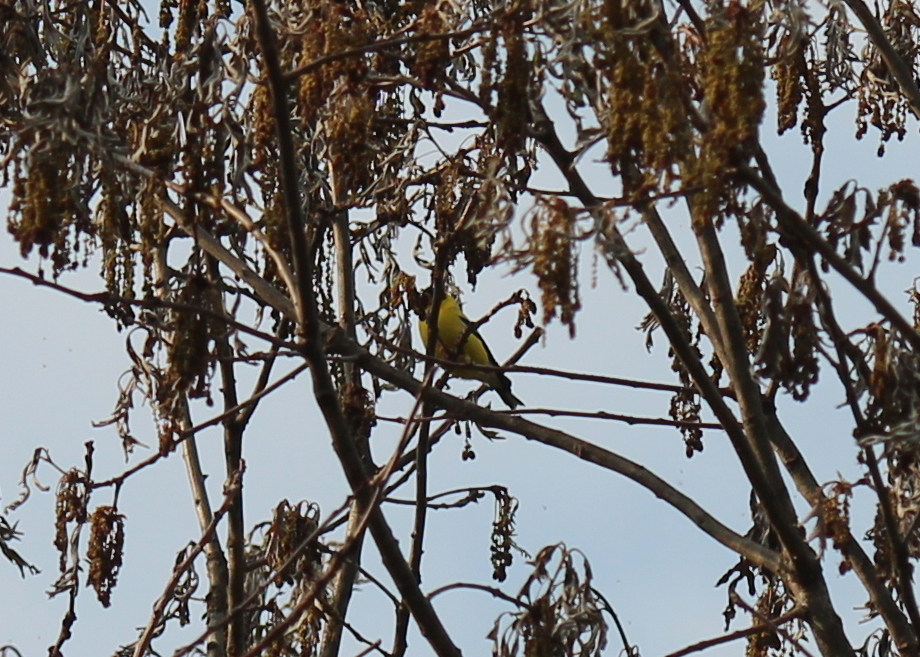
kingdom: Animalia
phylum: Chordata
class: Aves
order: Passeriformes
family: Fringillidae
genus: Spinus
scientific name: Spinus tristis
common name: American goldfinch
